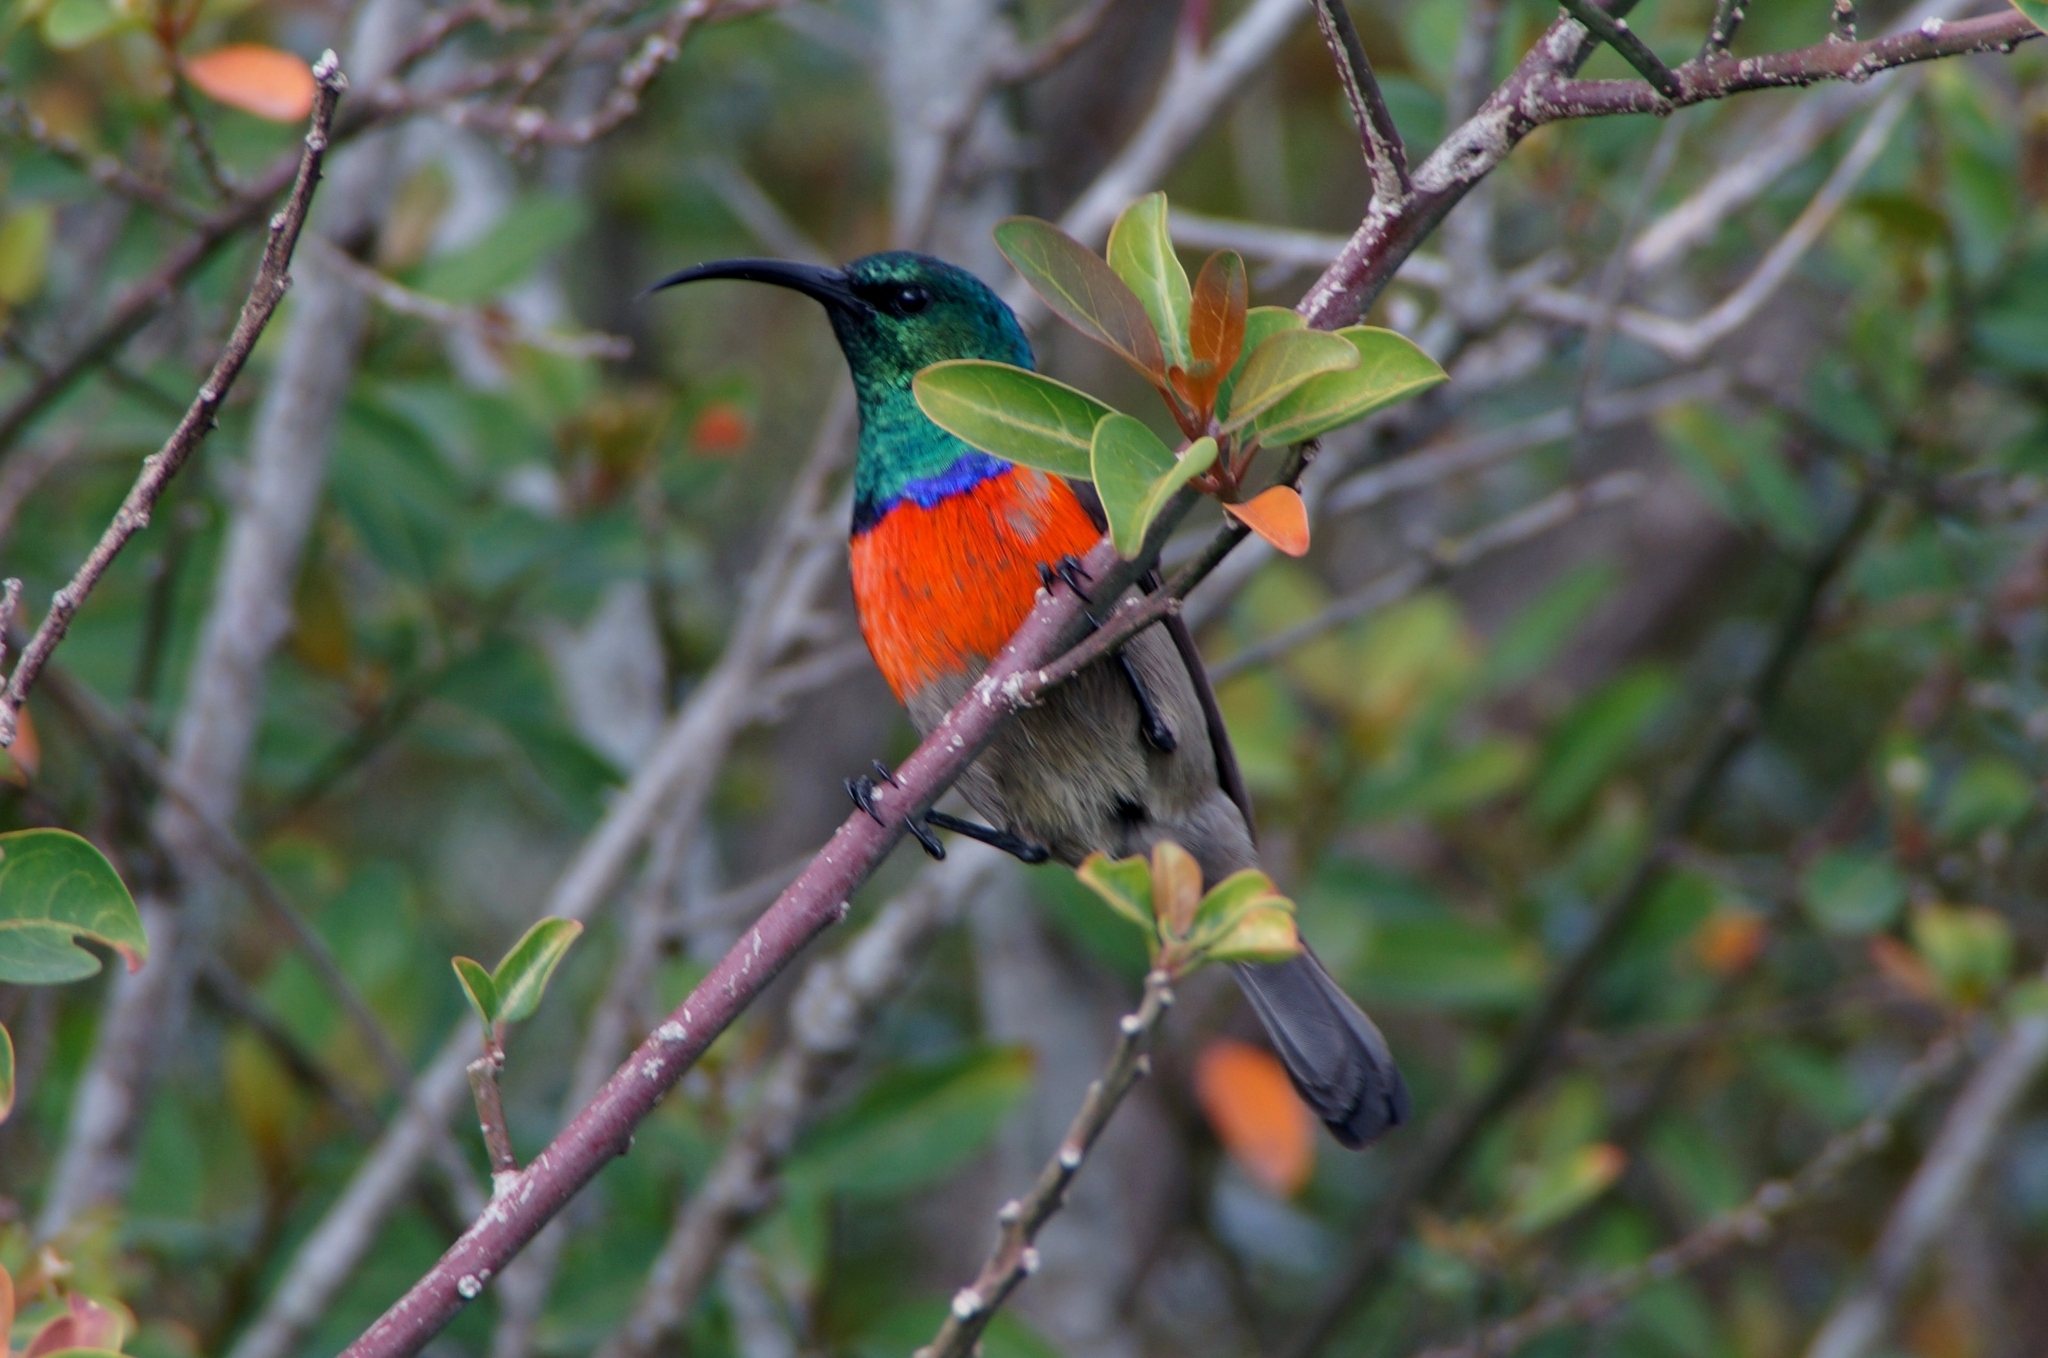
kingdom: Animalia
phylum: Chordata
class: Aves
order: Passeriformes
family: Nectariniidae
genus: Cinnyris
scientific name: Cinnyris afer
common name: Greater double-collared sunbird
